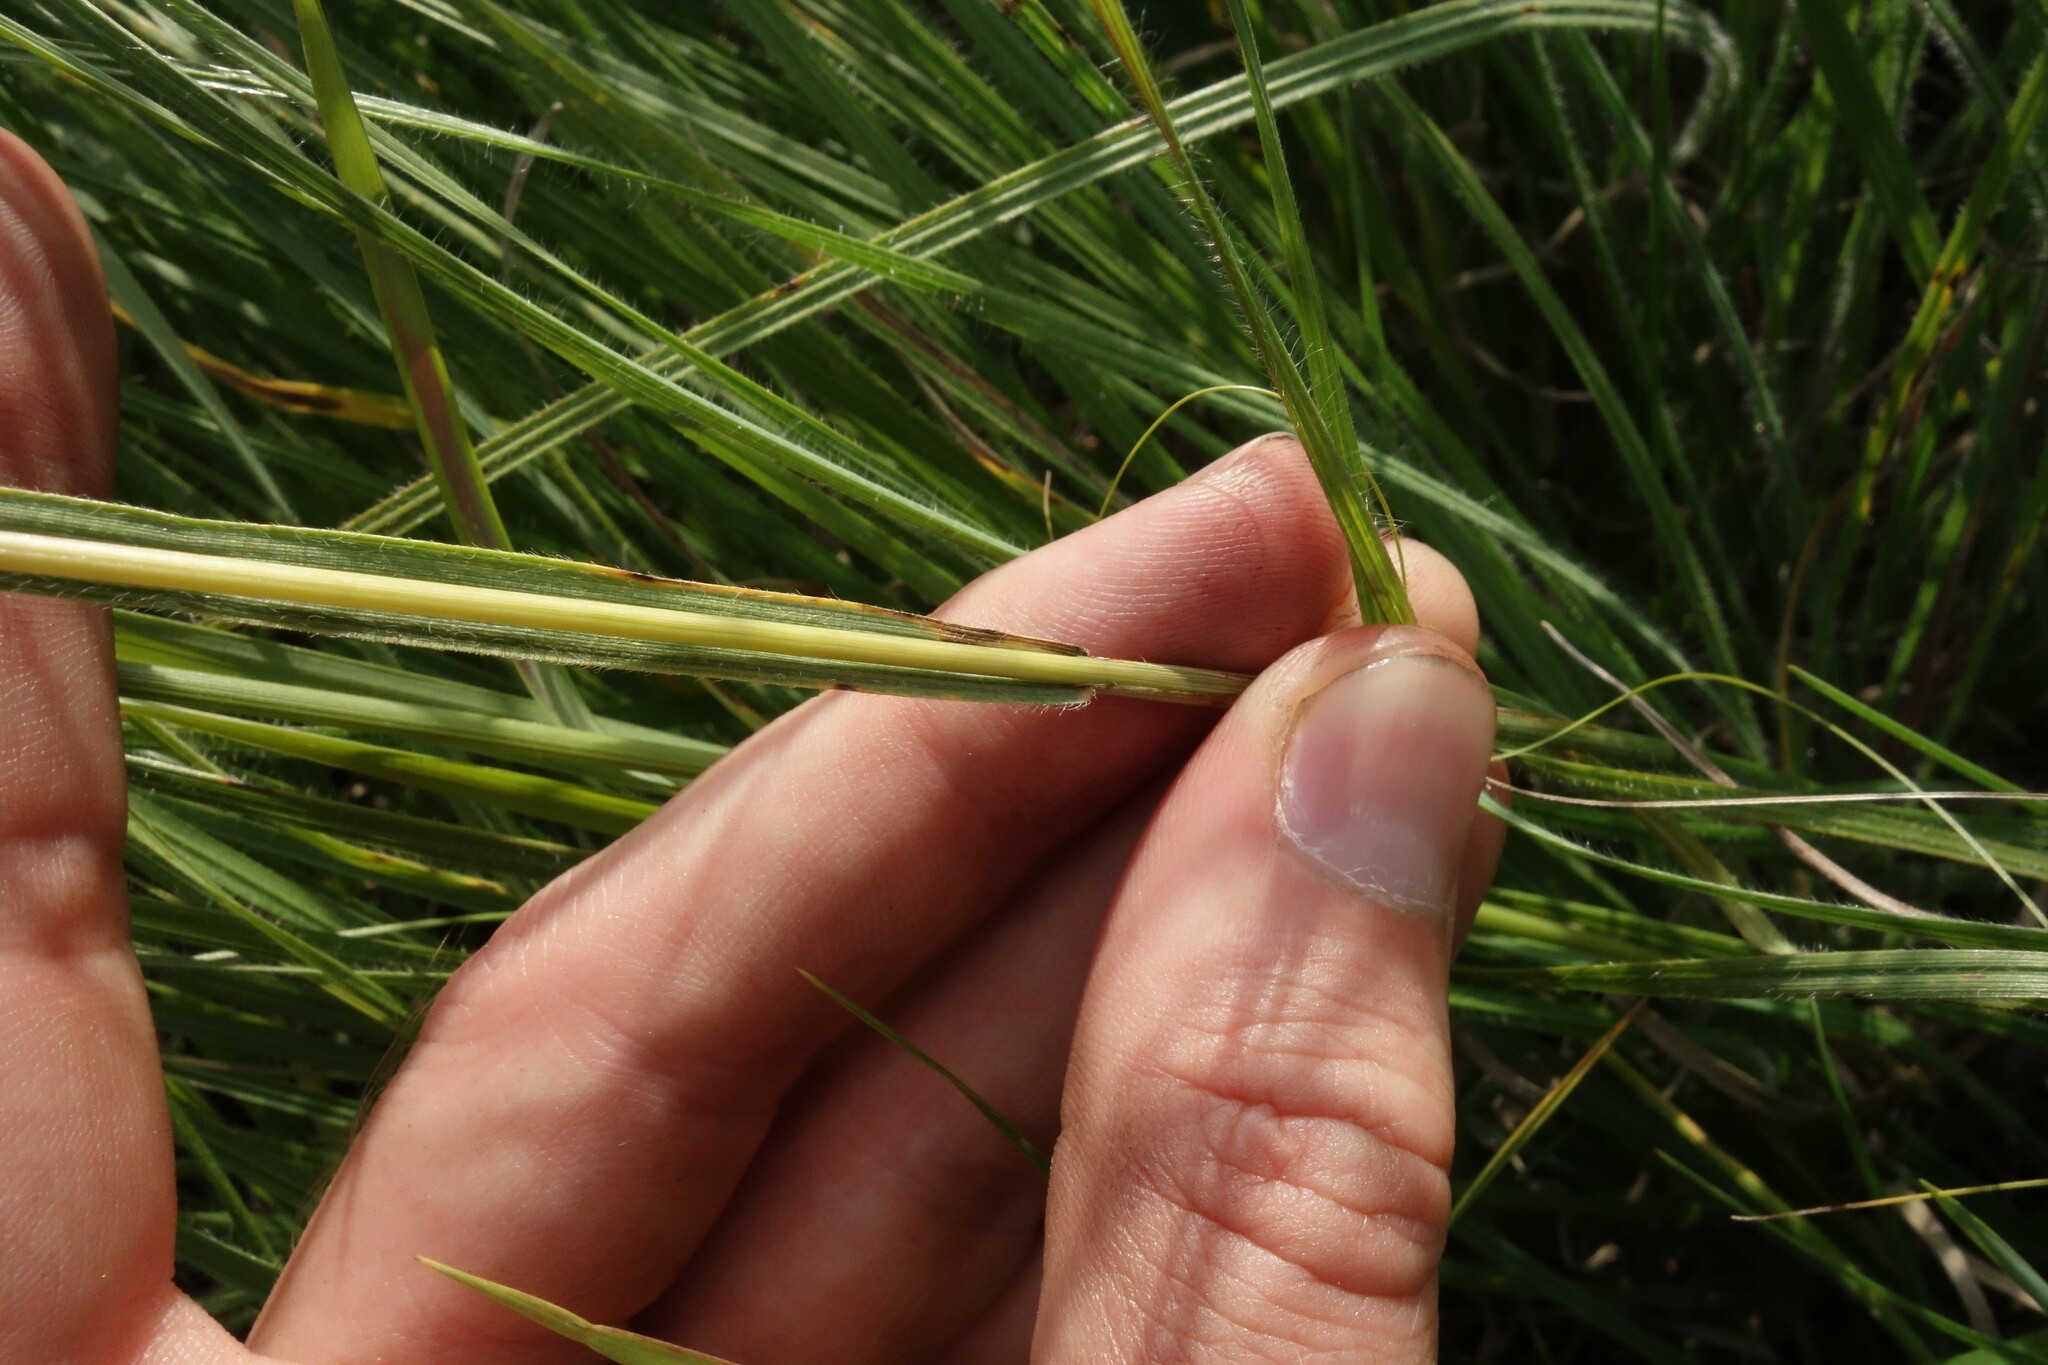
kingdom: Plantae
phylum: Tracheophyta
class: Liliopsida
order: Poales
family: Poaceae
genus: Bromus
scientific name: Bromus riparius
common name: Meadow brome
